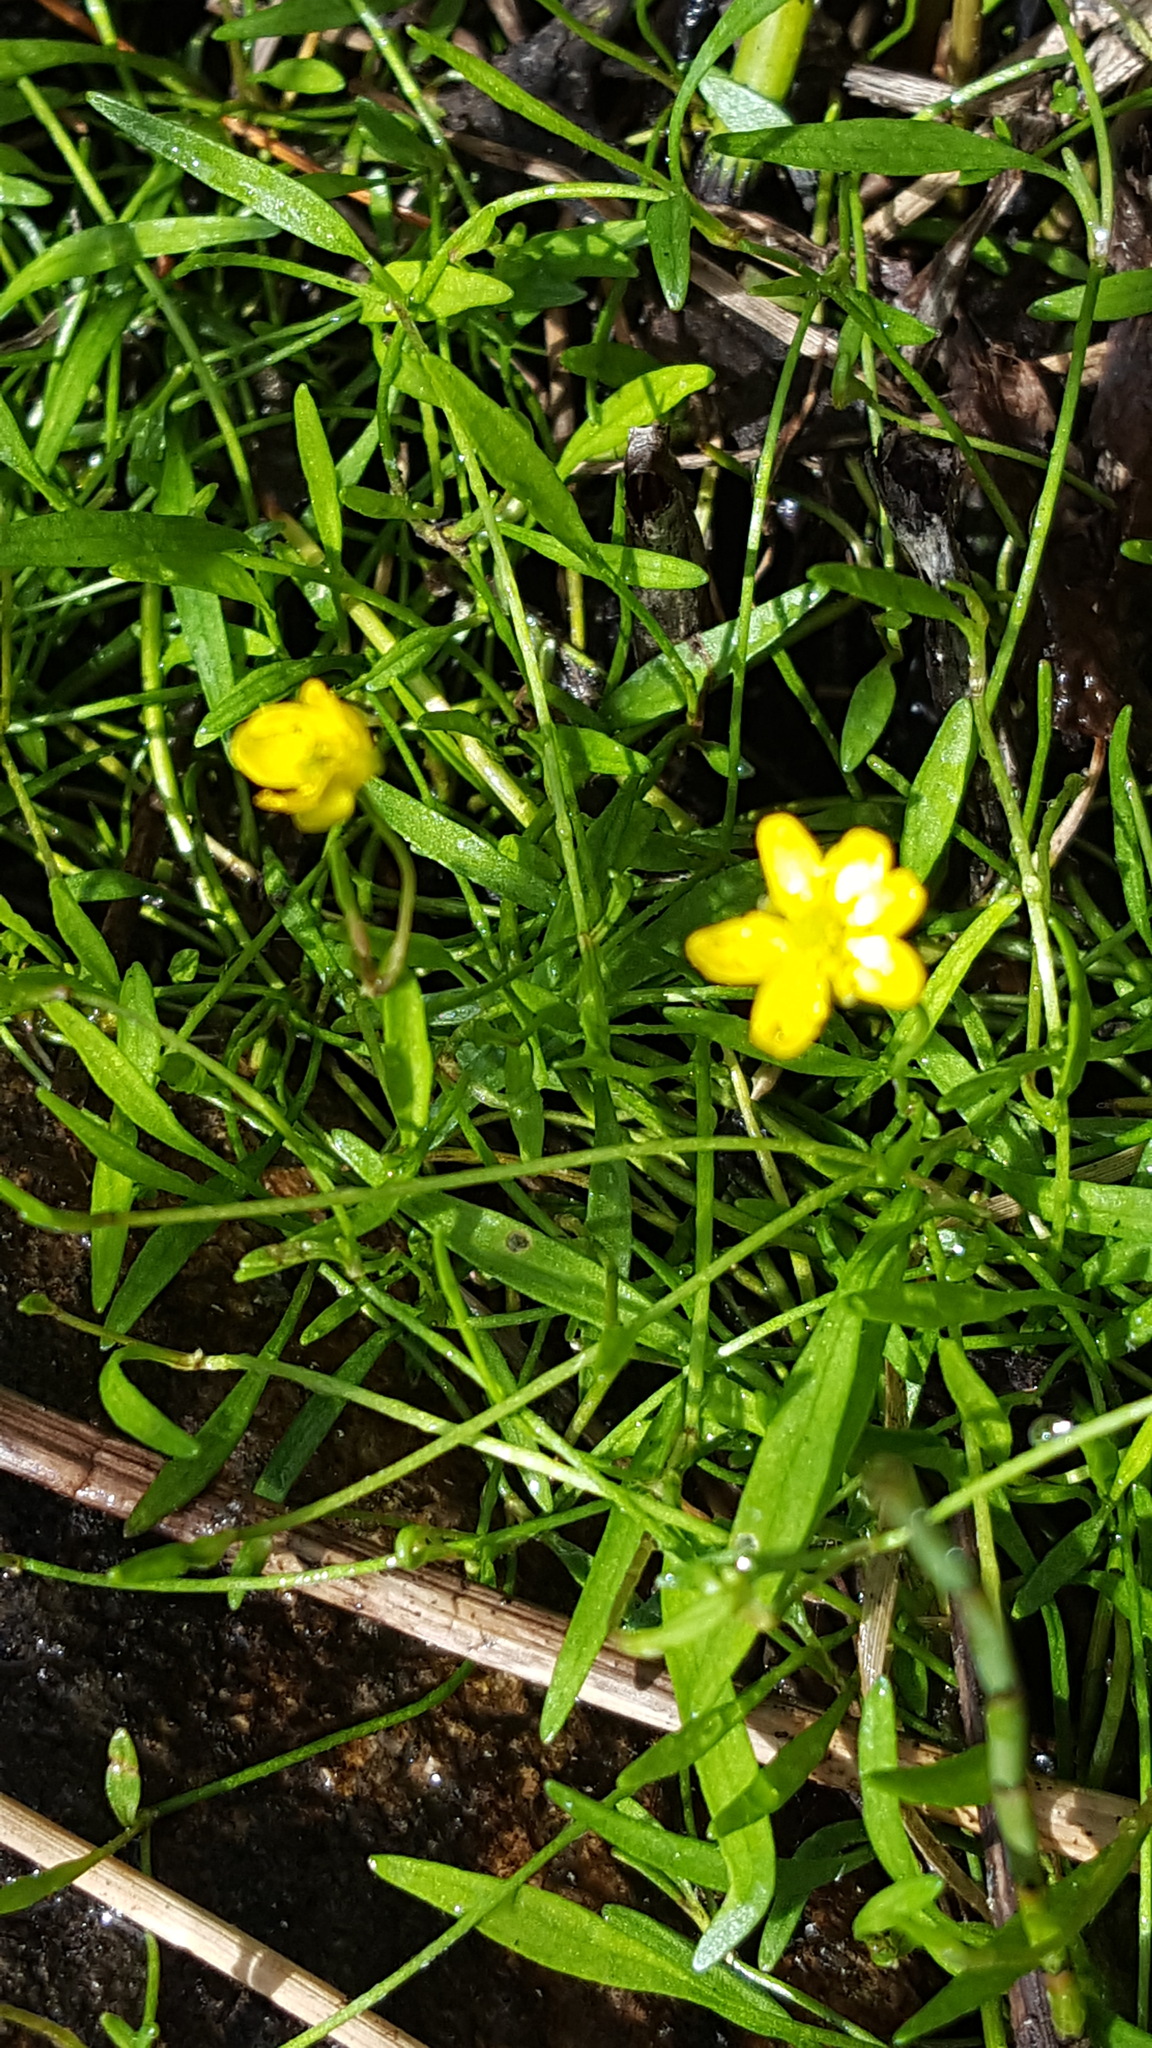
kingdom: Plantae
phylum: Tracheophyta
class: Magnoliopsida
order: Ranunculales
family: Ranunculaceae
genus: Ranunculus
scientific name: Ranunculus reptans
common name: Creeping spearwort
